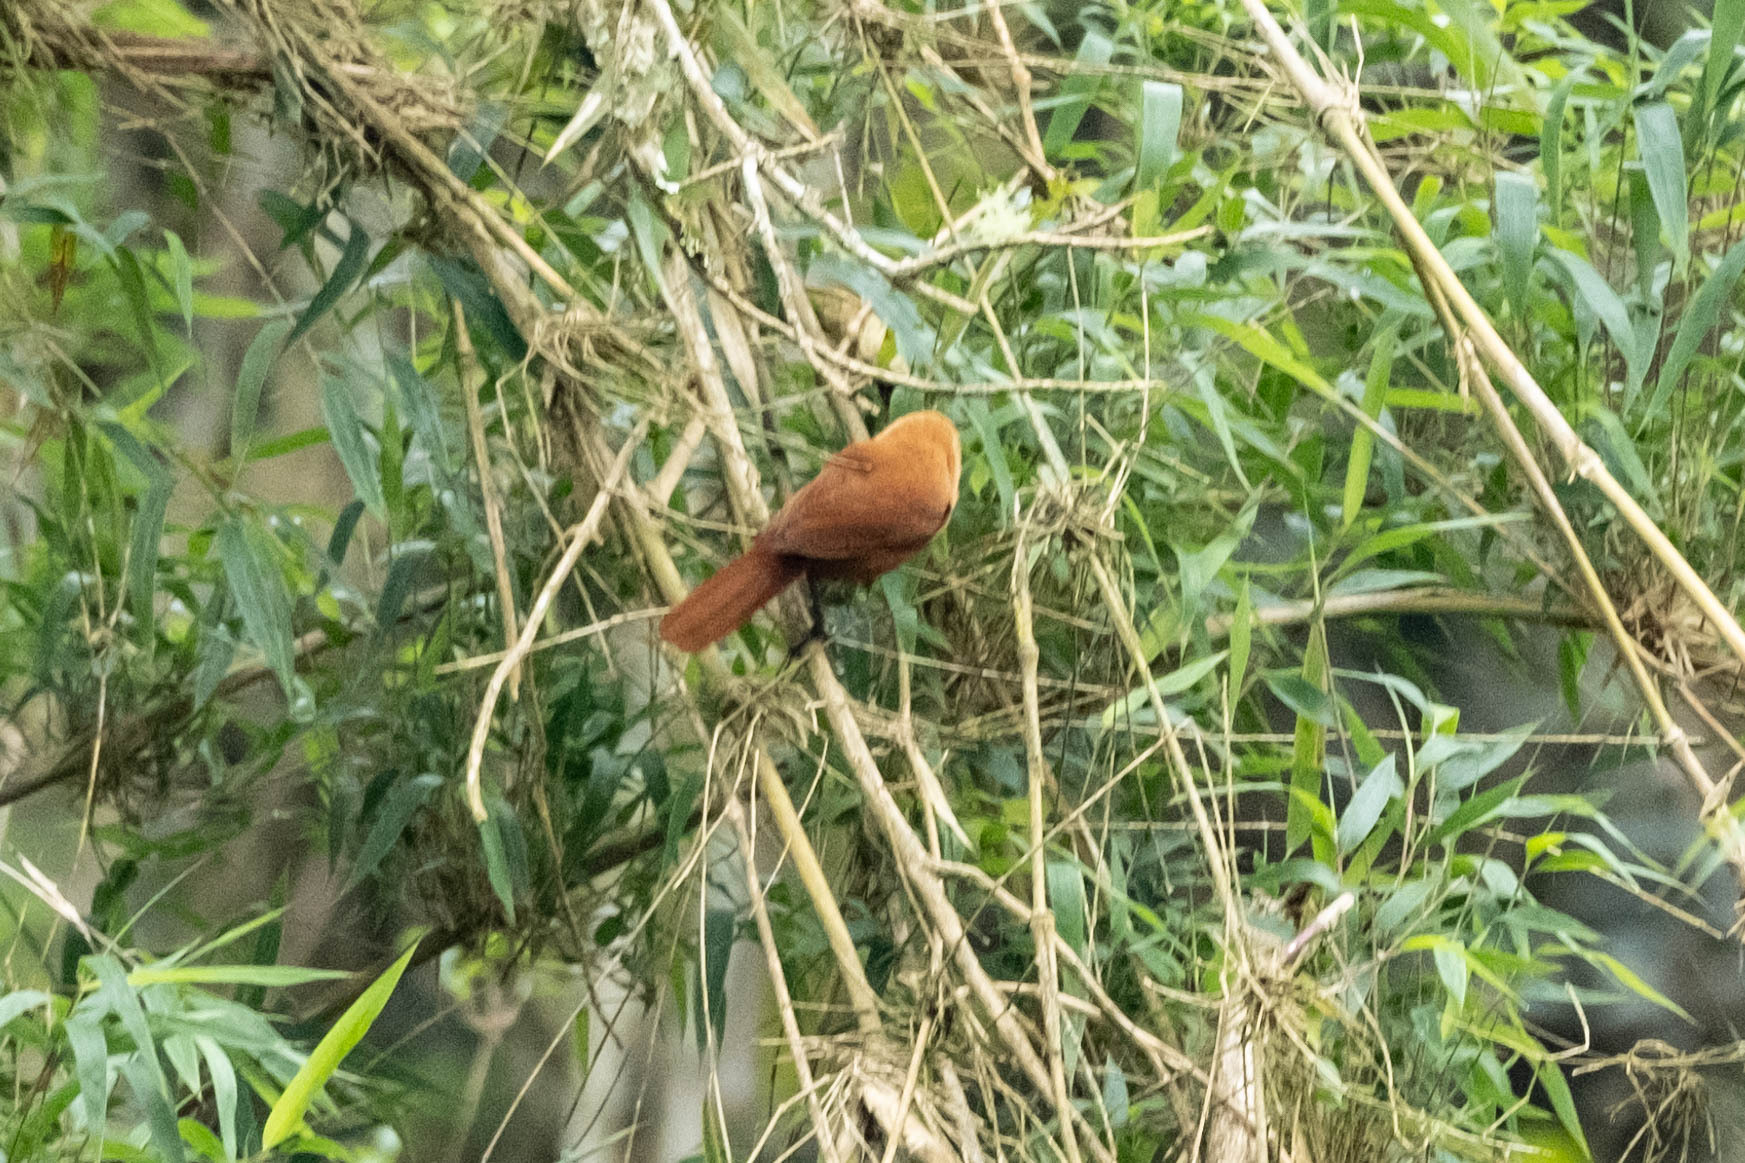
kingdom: Animalia
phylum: Chordata
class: Aves
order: Passeriformes
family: Troglodytidae
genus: Cinnycerthia
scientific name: Cinnycerthia unirufa
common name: Rufous wren
